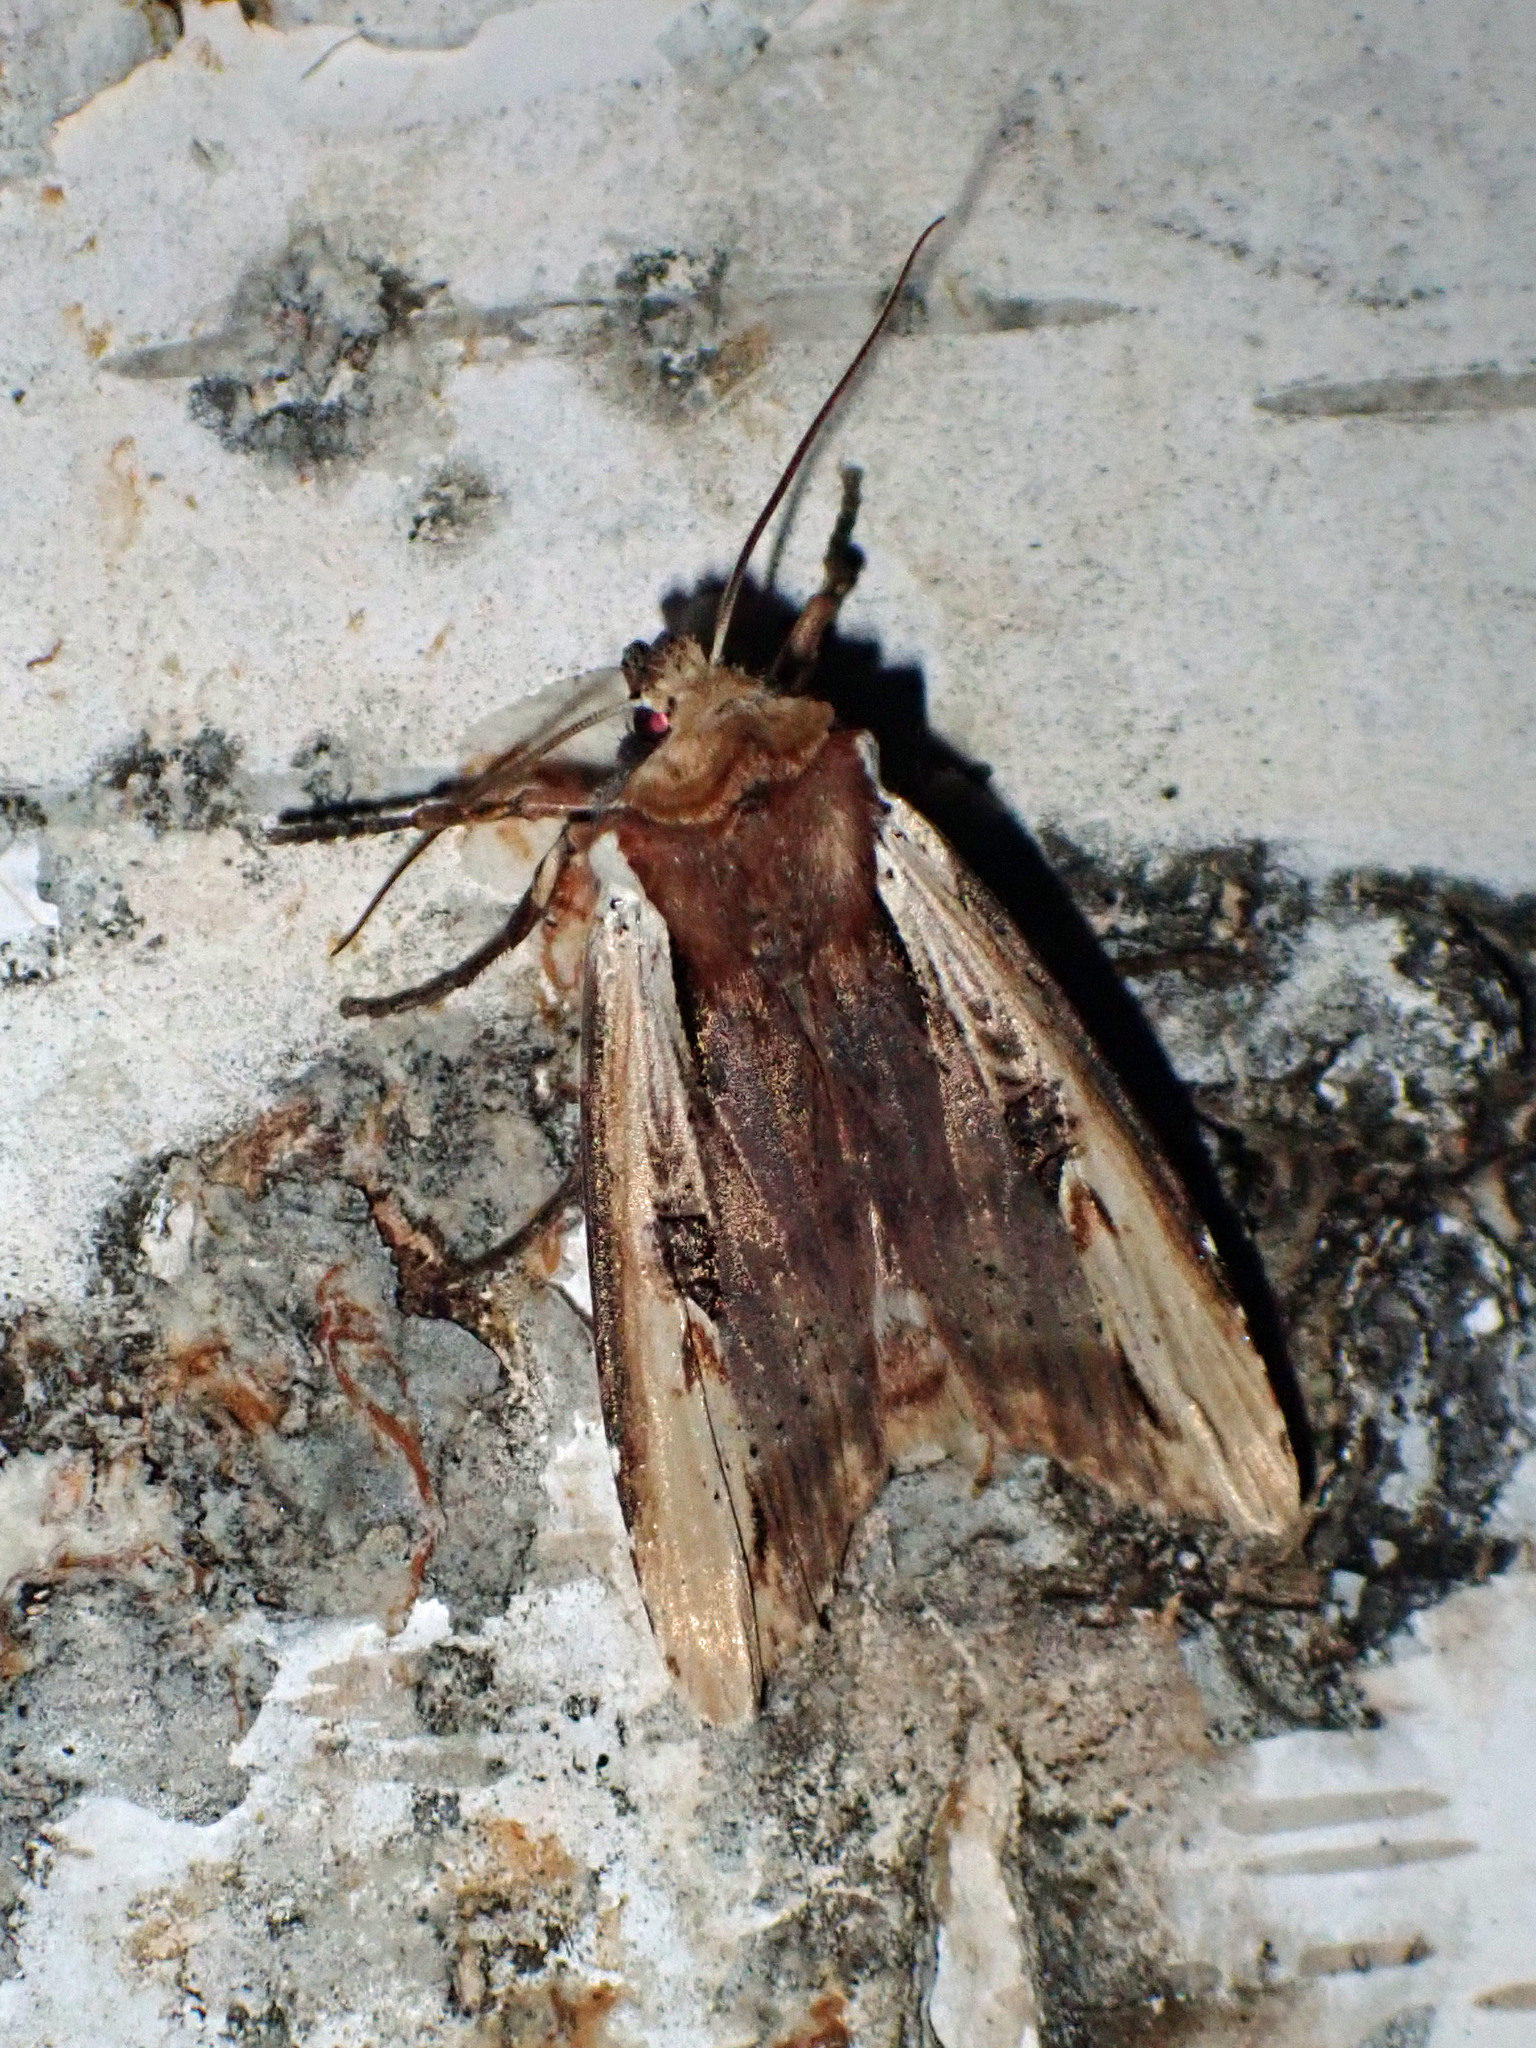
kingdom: Animalia
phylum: Arthropoda
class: Insecta
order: Lepidoptera
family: Noctuidae
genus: Xylena
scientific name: Xylena curvimacula
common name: Dot-and-dash swordgrass moth
